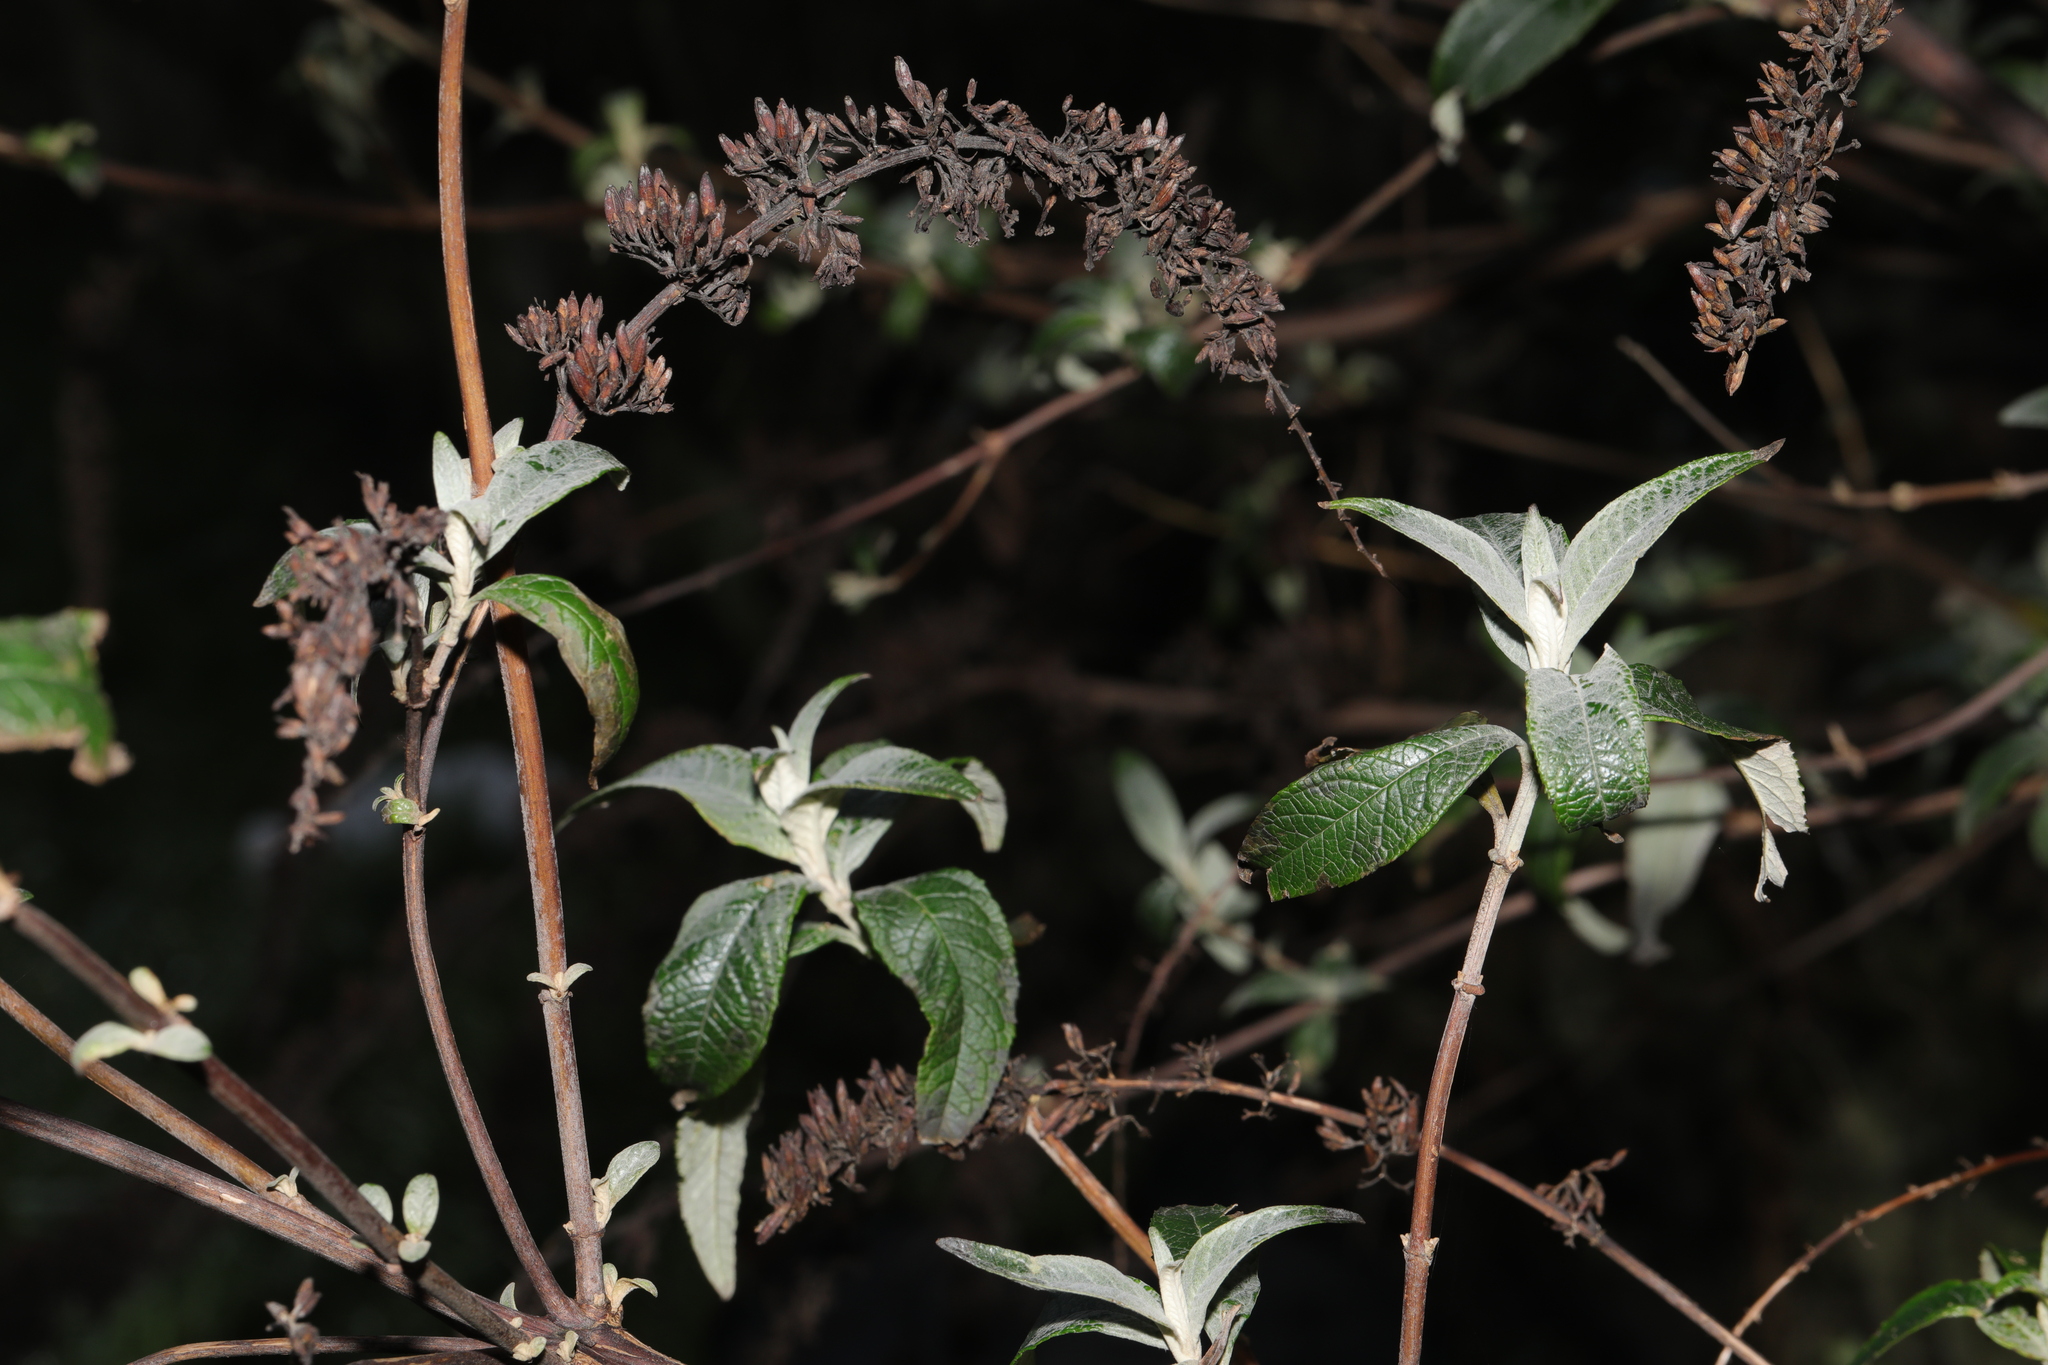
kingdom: Plantae
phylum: Tracheophyta
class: Magnoliopsida
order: Lamiales
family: Scrophulariaceae
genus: Buddleja
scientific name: Buddleja davidii
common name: Butterfly-bush
